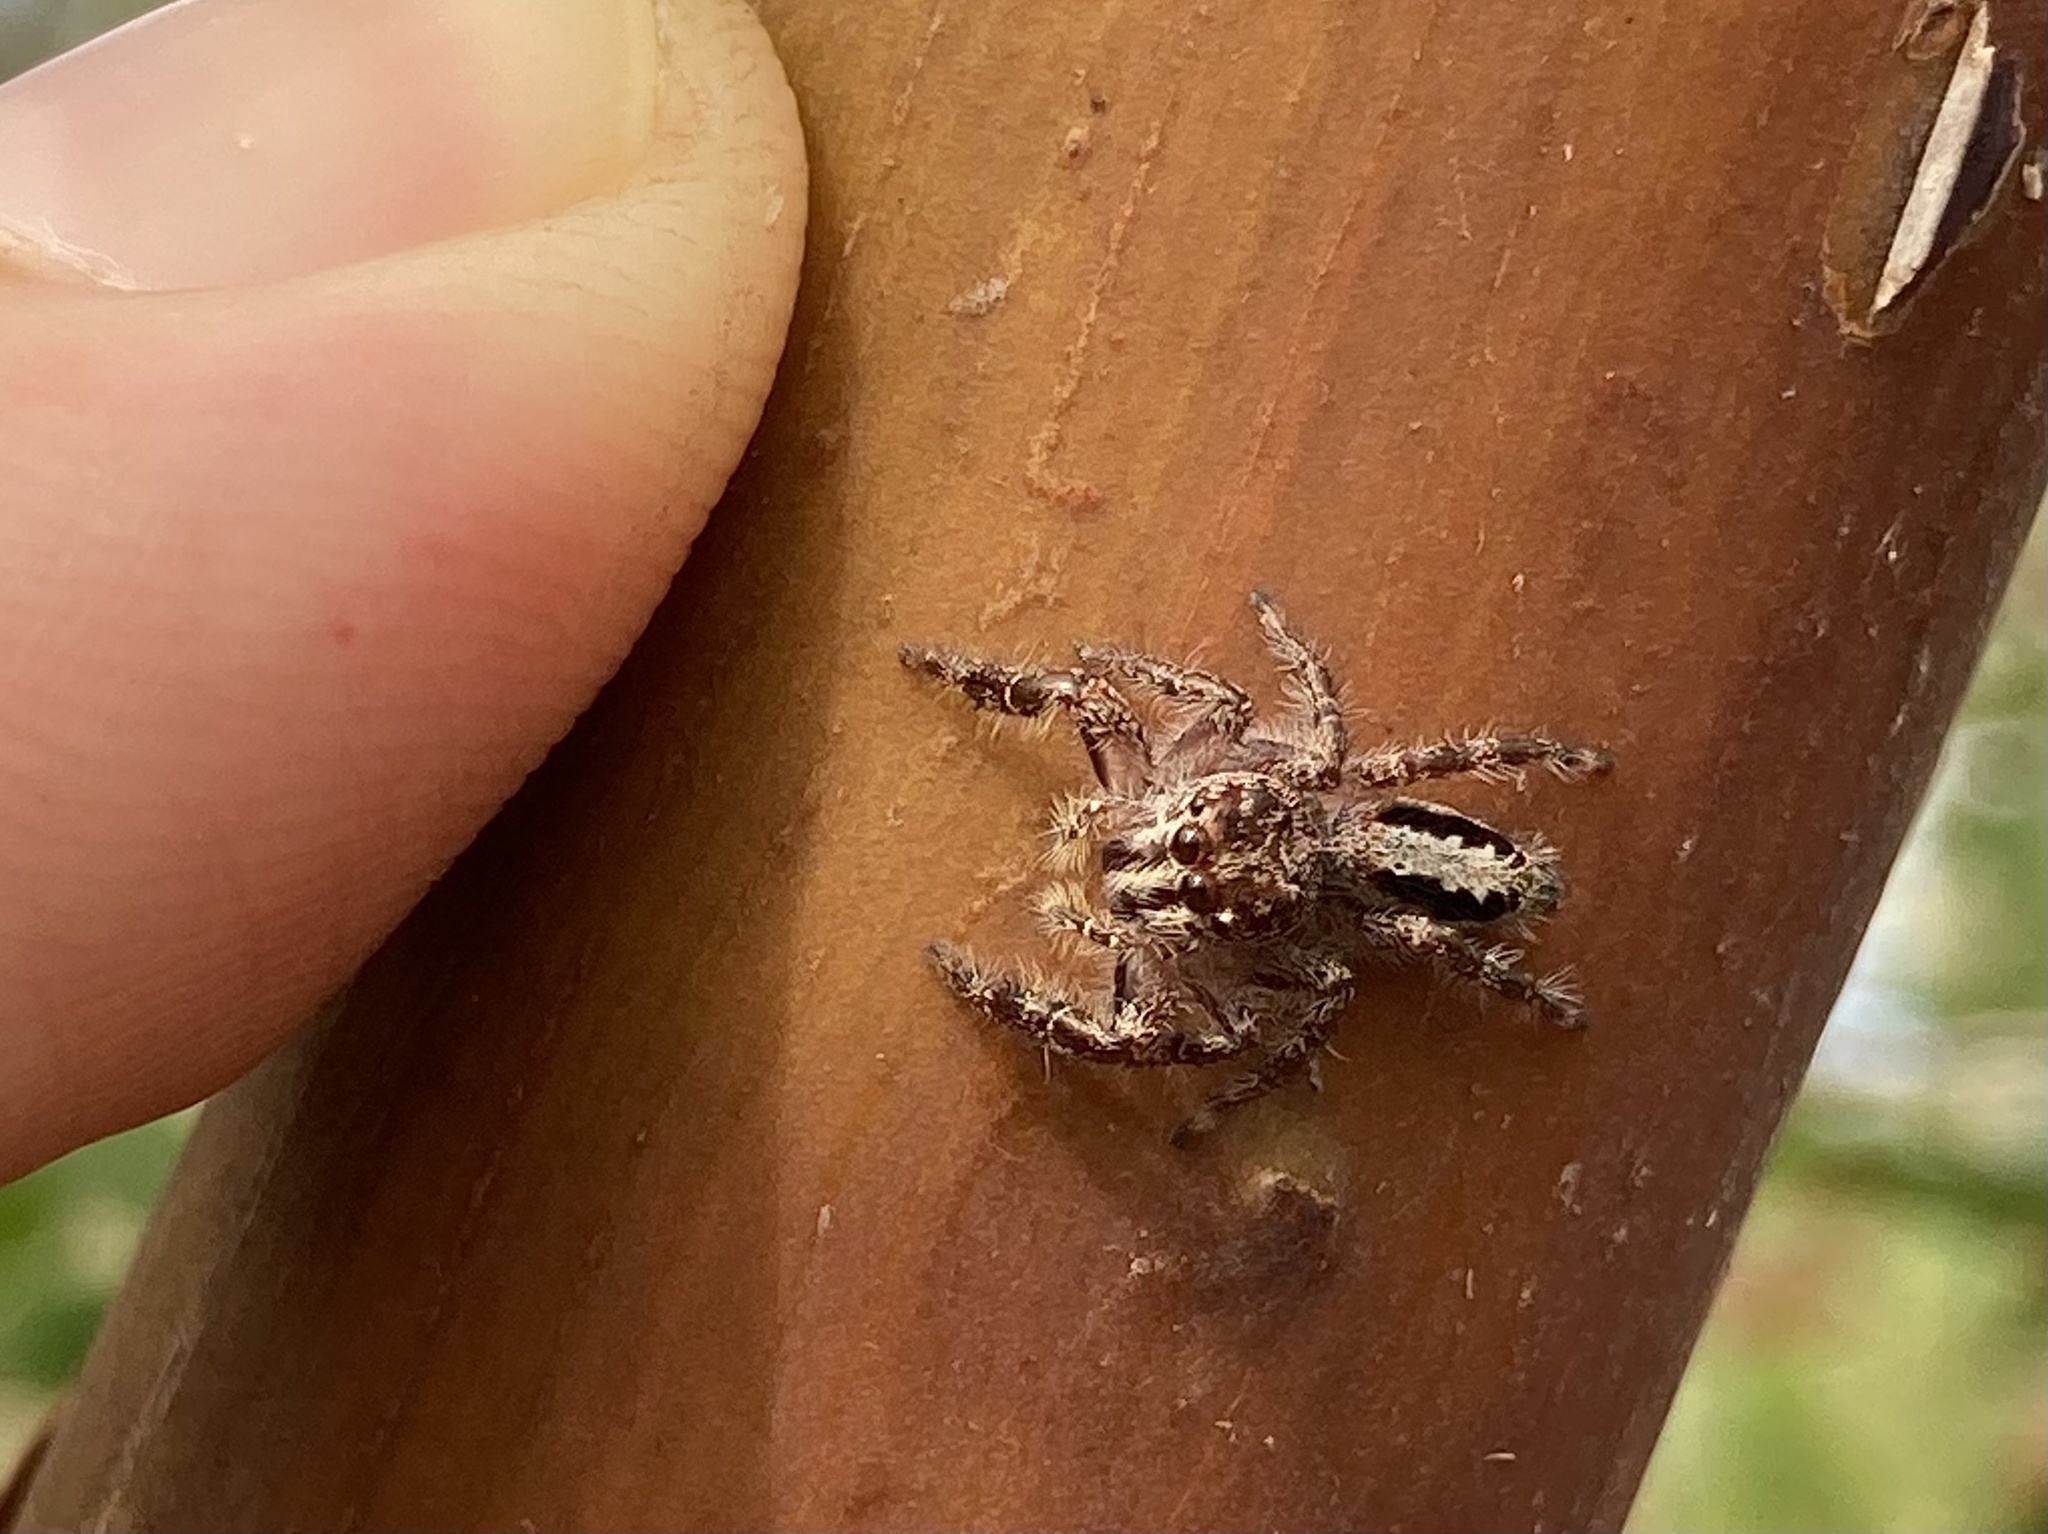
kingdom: Animalia
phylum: Arthropoda
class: Arachnida
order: Araneae
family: Salticidae
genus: Sandalodes
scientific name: Sandalodes superbus
